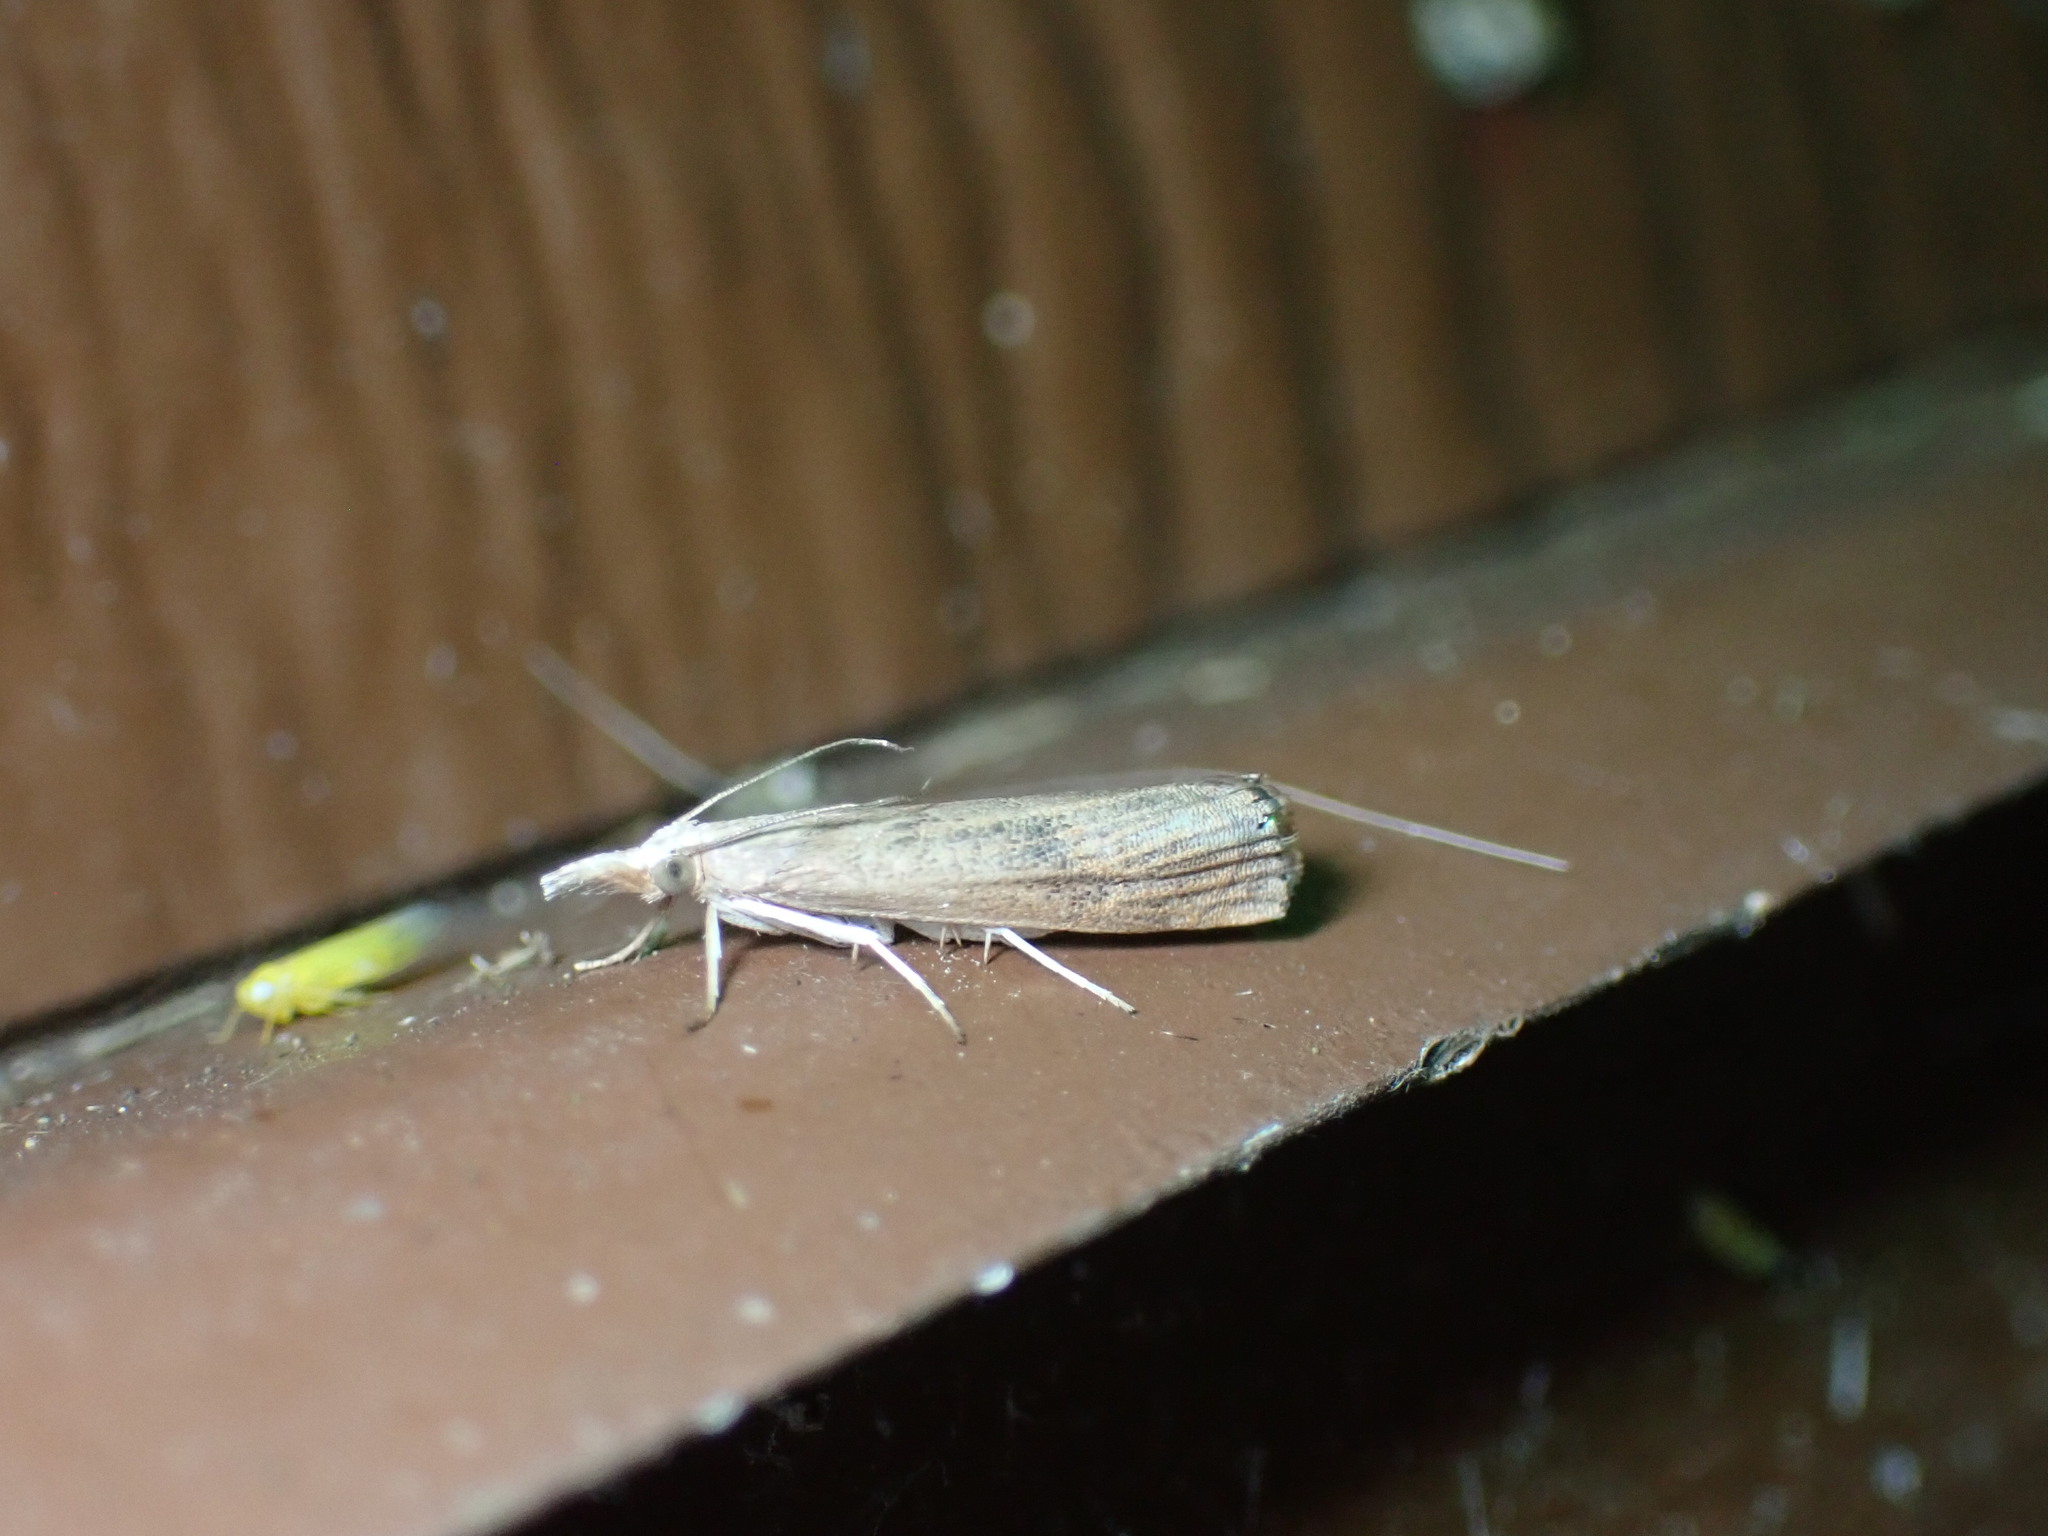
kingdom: Animalia
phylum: Arthropoda
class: Insecta
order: Lepidoptera
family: Crambidae
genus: Parapediasia
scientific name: Parapediasia teterellus
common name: Bluegrass webworm moth
